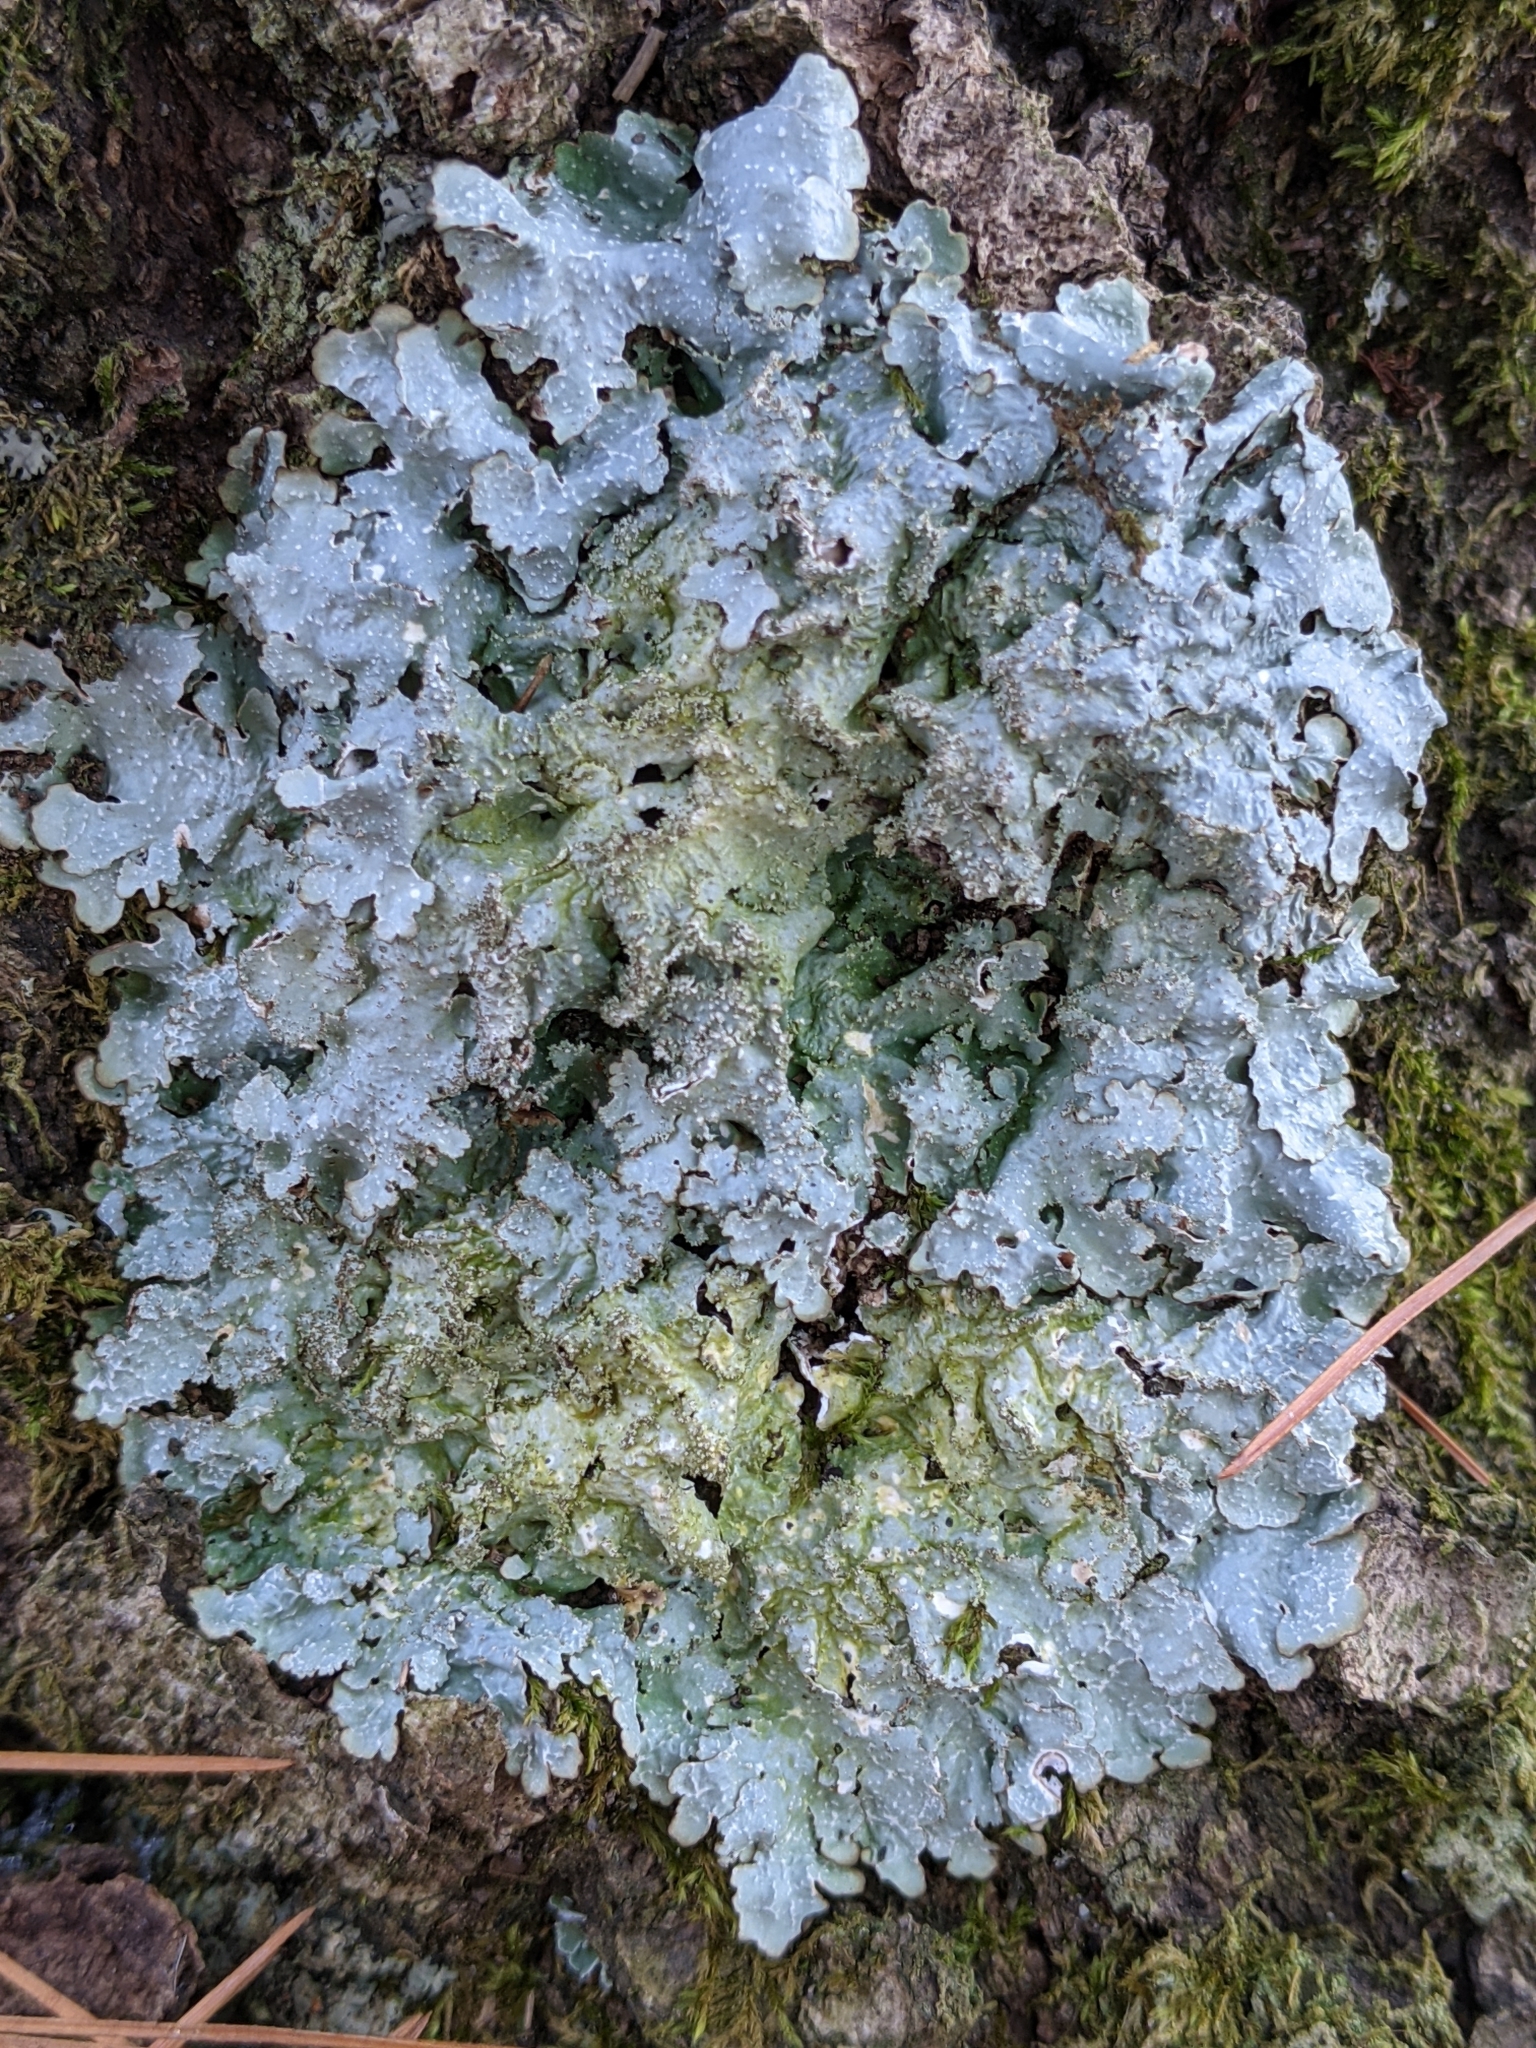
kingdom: Fungi
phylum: Ascomycota
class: Lecanoromycetes
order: Lecanorales
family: Parmeliaceae
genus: Punctelia
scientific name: Punctelia rudecta
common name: Rough speckled shield lichen
